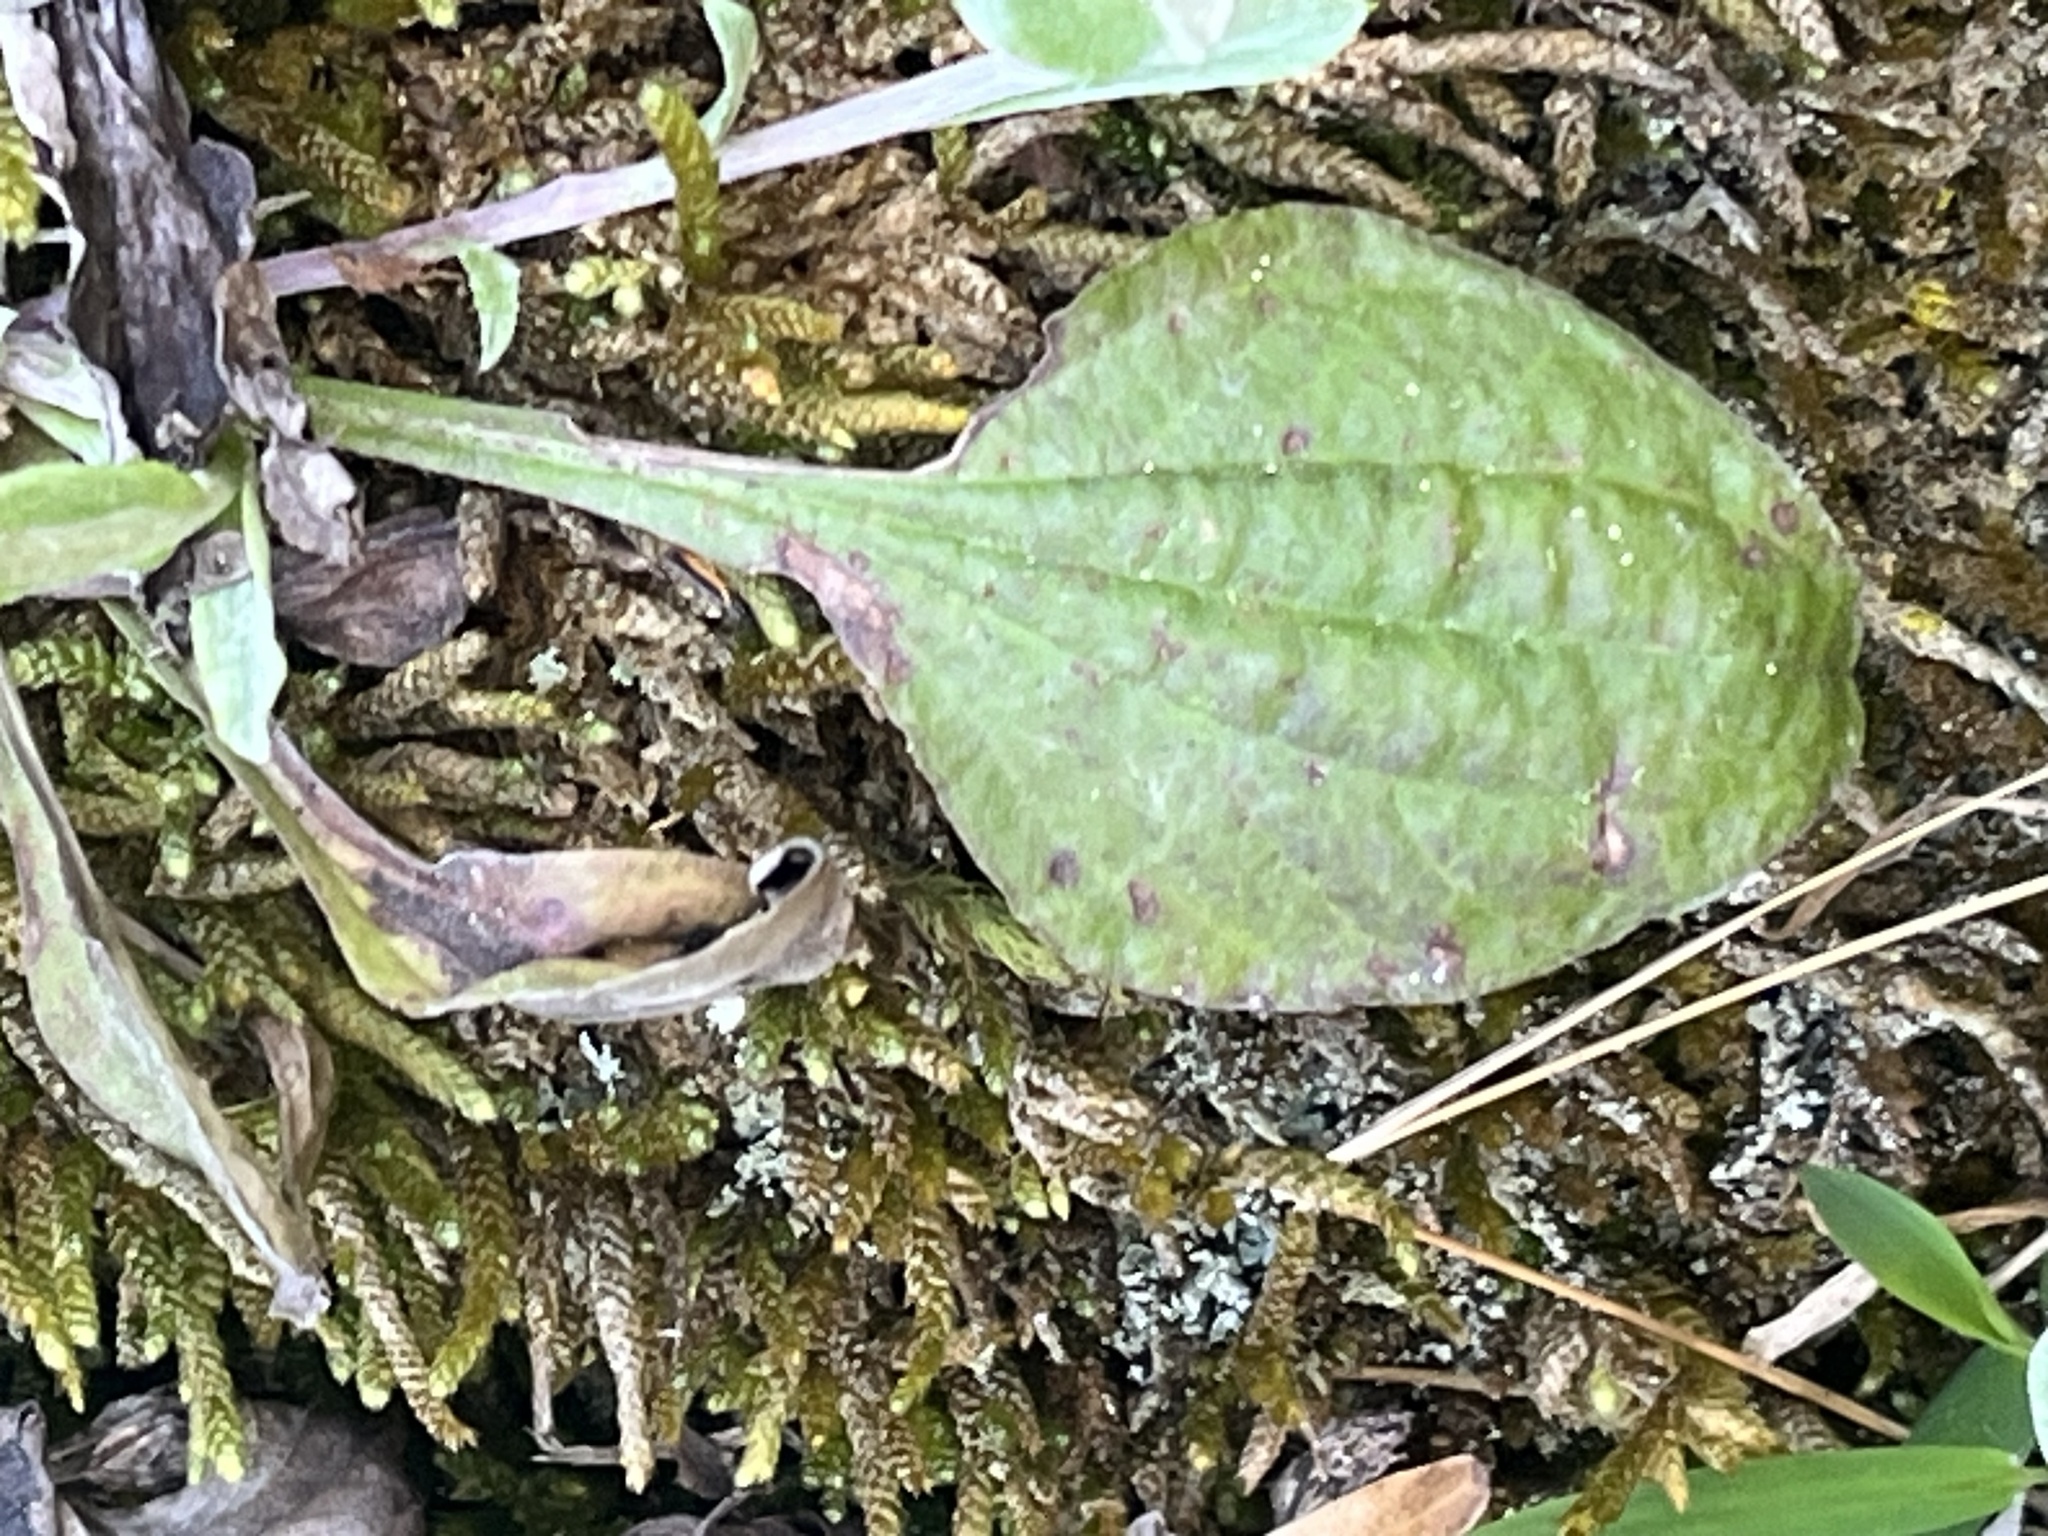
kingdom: Plantae
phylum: Tracheophyta
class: Magnoliopsida
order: Asterales
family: Asteraceae
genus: Antennaria
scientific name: Antennaria plantaginifolia
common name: Plantain-leaved pussytoes
